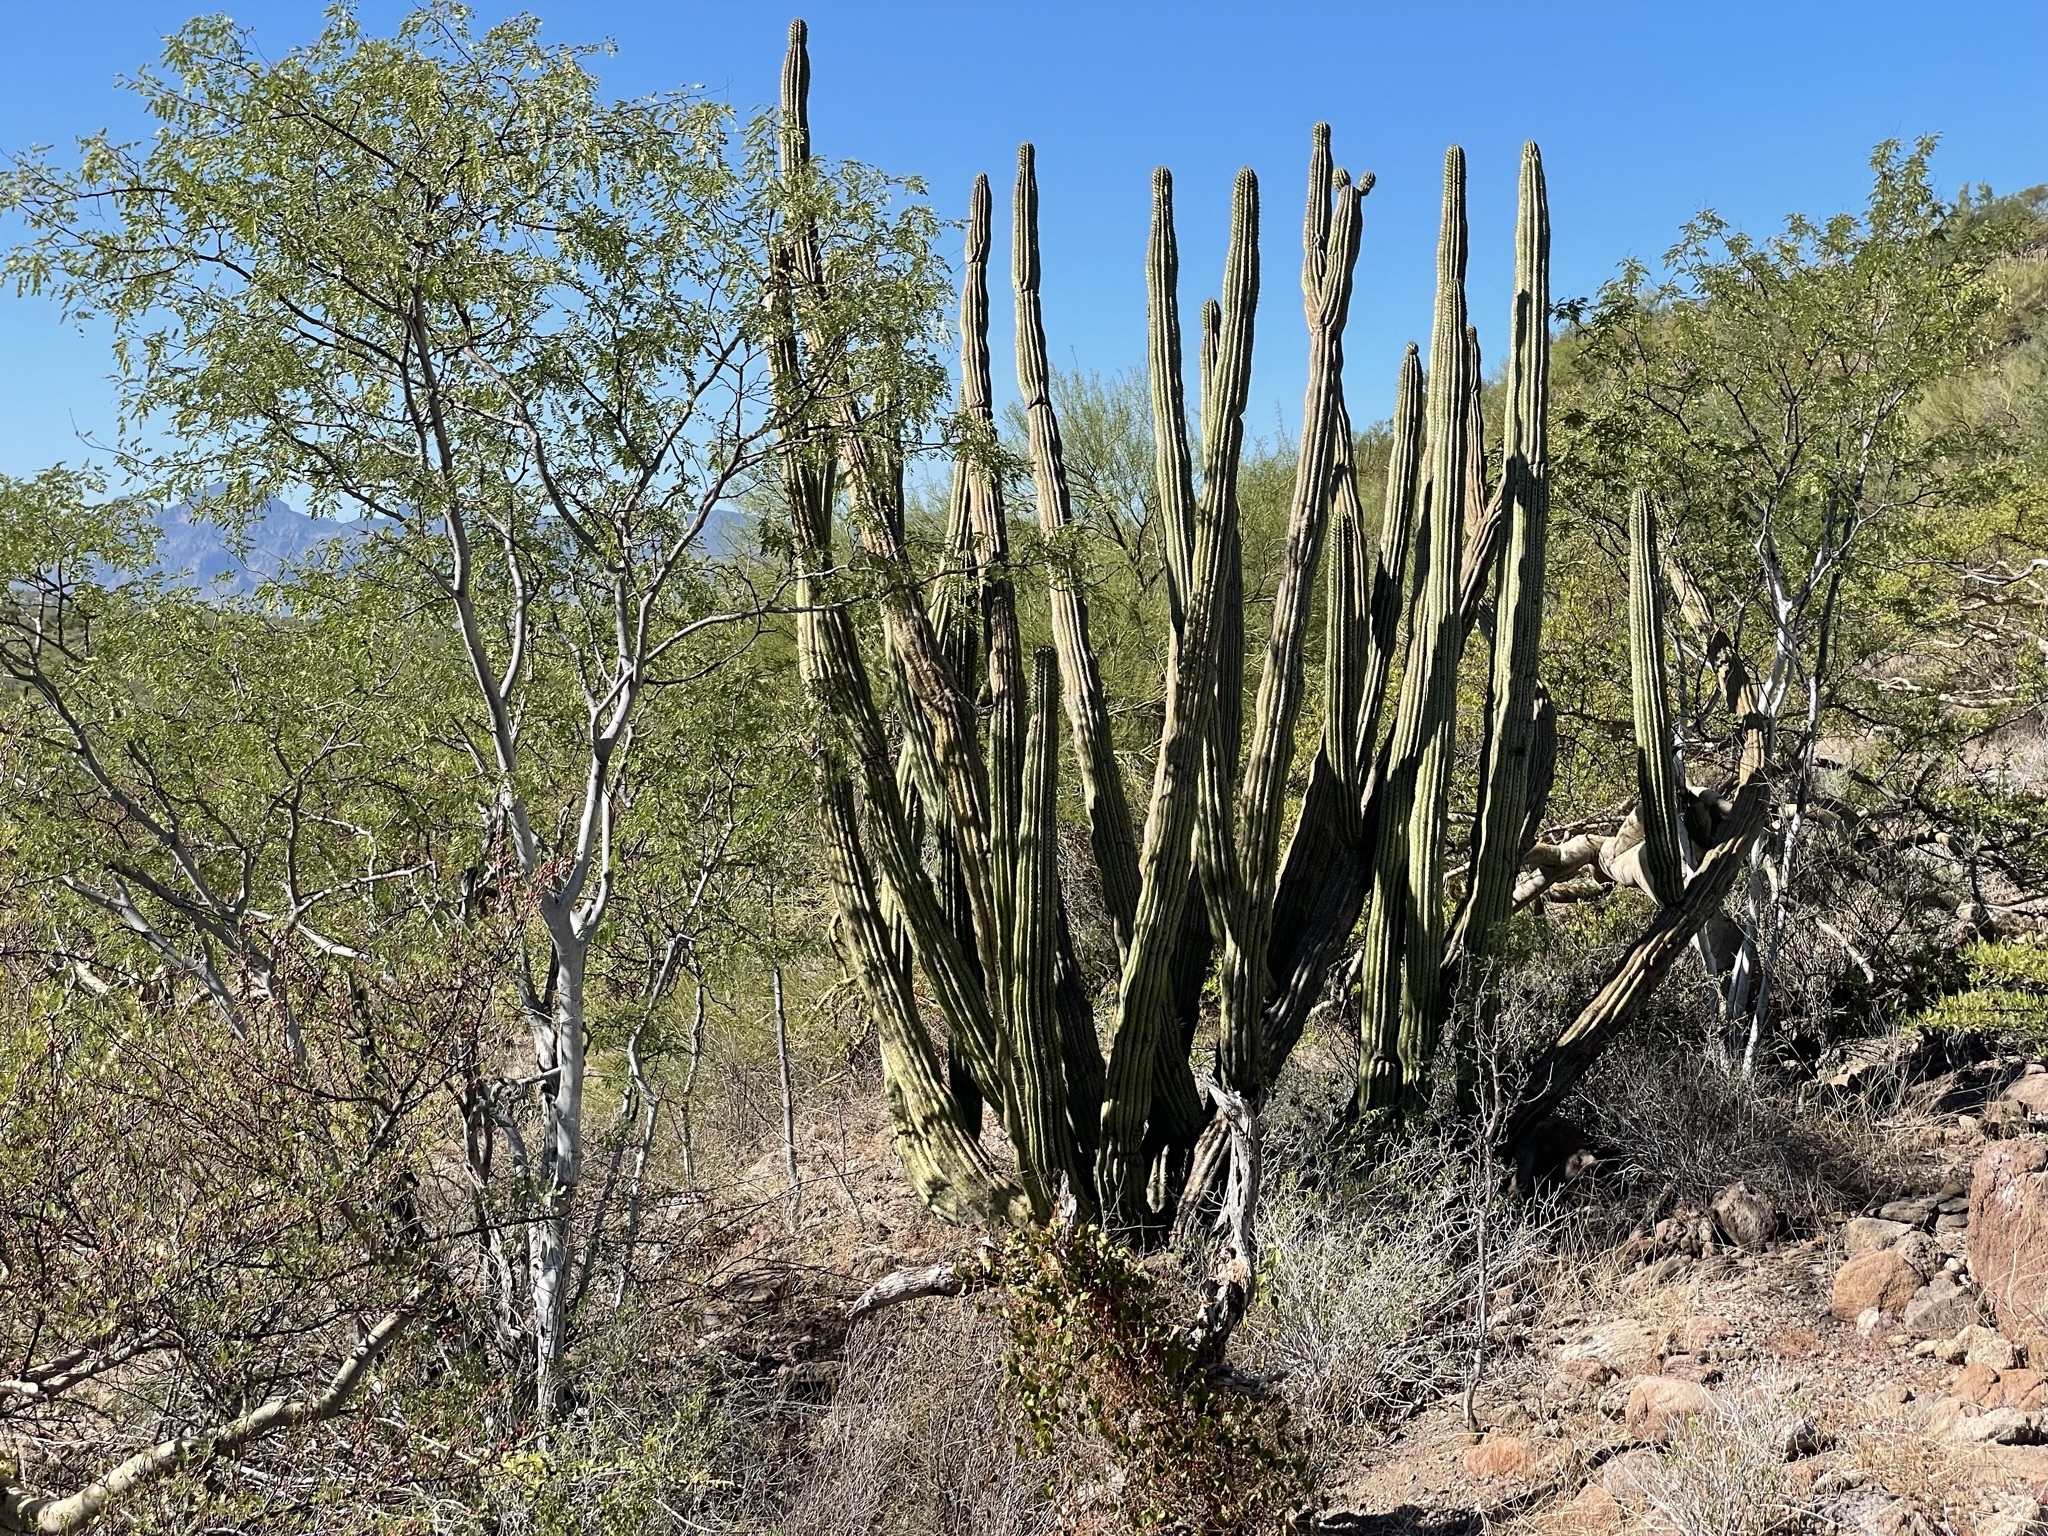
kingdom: Plantae
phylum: Tracheophyta
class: Magnoliopsida
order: Caryophyllales
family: Cactaceae
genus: Stenocereus
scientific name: Stenocereus thurberi
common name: Organ pipe cactus
